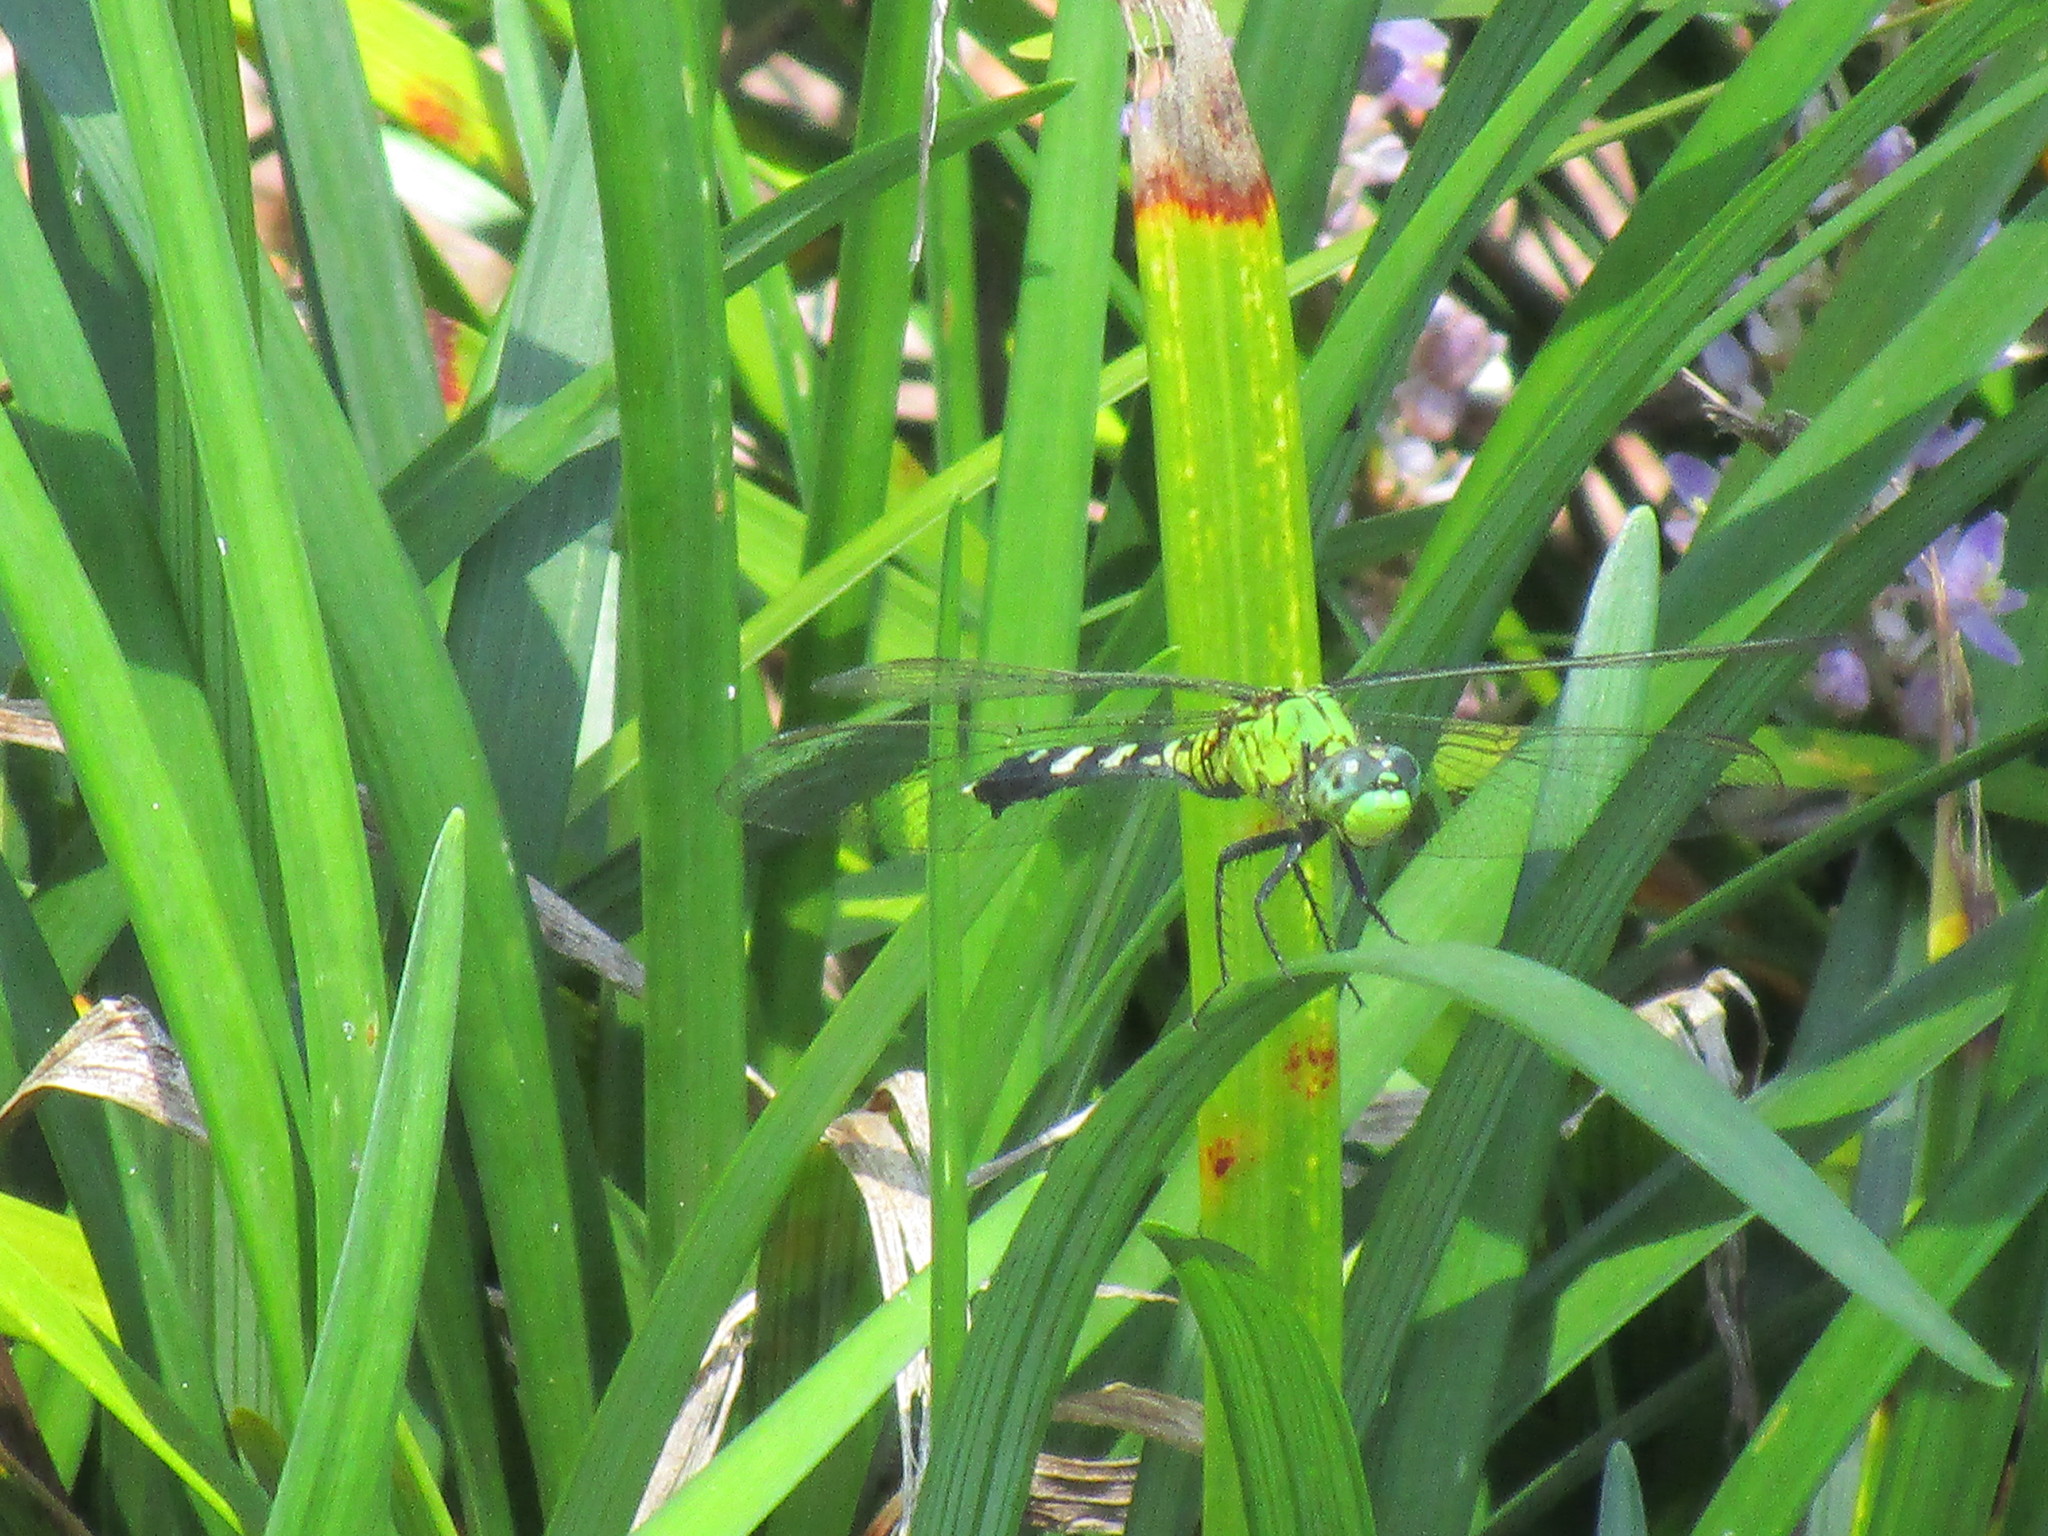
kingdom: Animalia
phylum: Arthropoda
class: Insecta
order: Odonata
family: Libellulidae
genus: Erythemis
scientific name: Erythemis simplicicollis
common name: Eastern pondhawk
